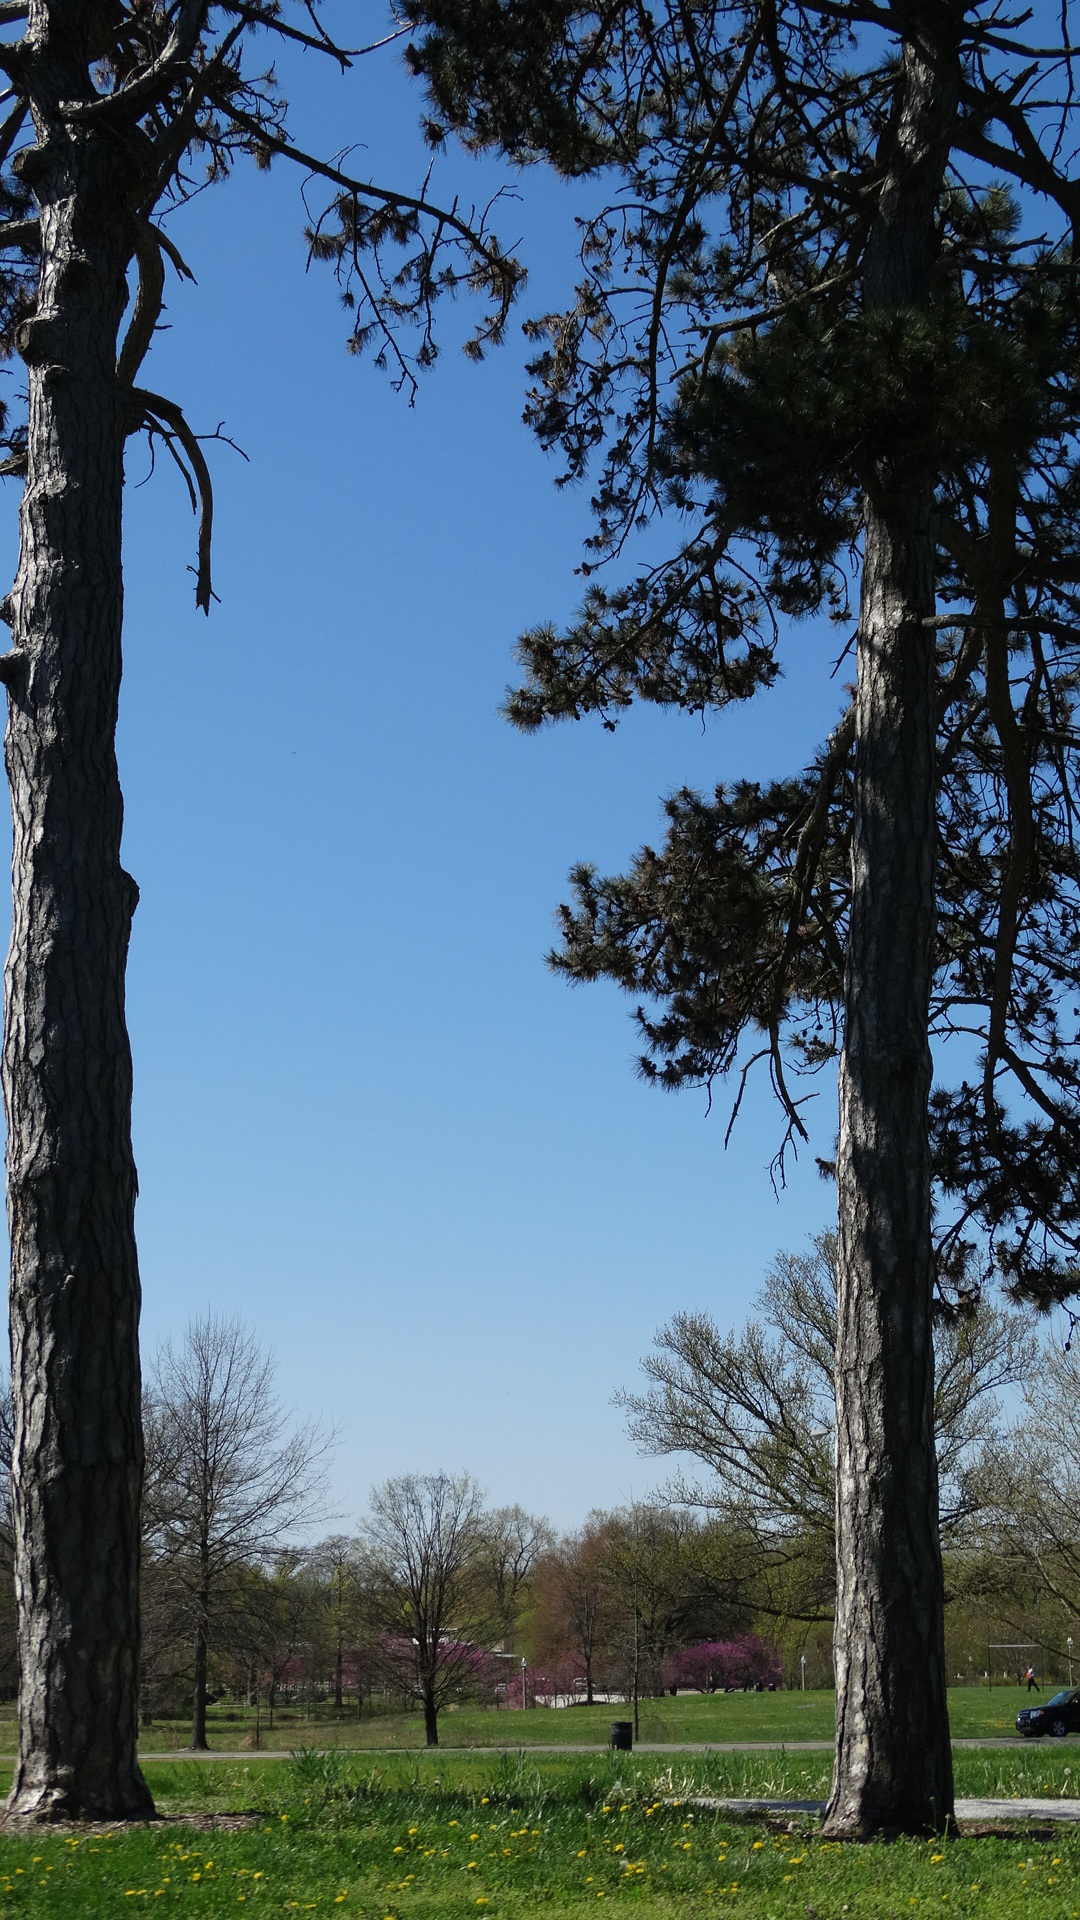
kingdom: Plantae
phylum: Tracheophyta
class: Pinopsida
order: Pinales
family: Pinaceae
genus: Pinus
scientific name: Pinus echinata
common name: Shortleaf pine
